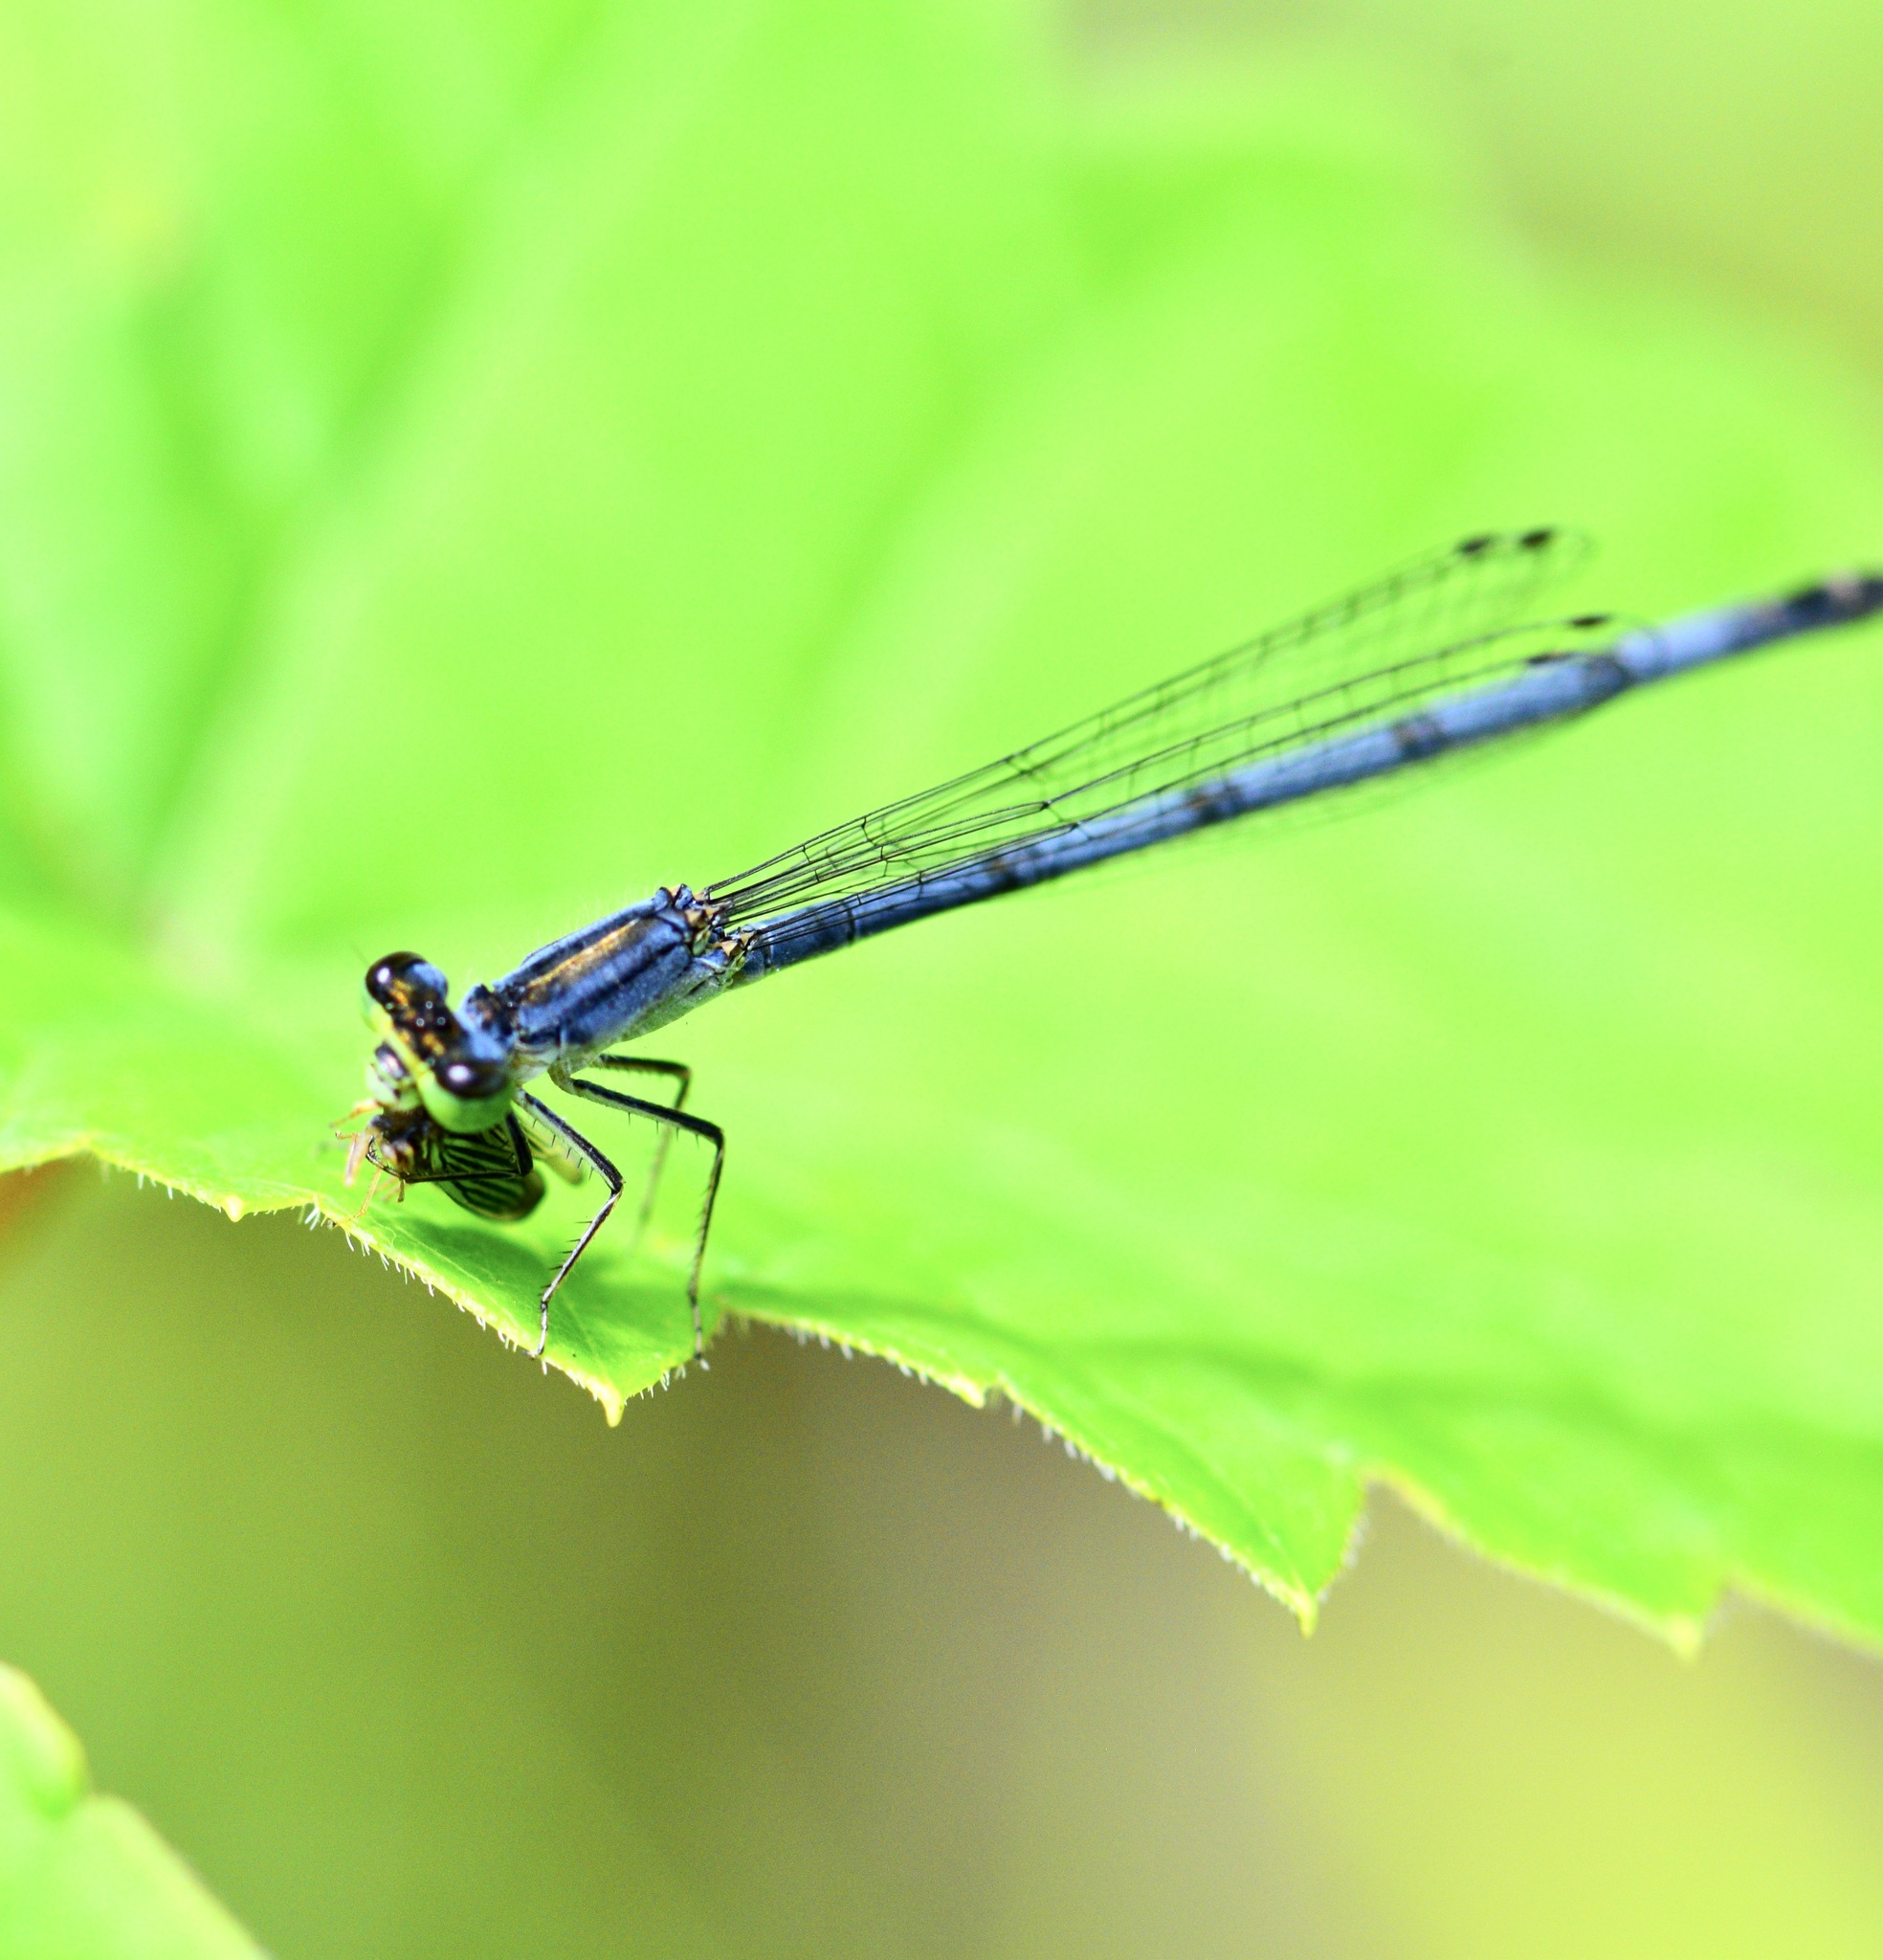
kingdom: Animalia
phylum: Arthropoda
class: Insecta
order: Odonata
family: Coenagrionidae
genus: Ischnura
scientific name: Ischnura verticalis
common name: Eastern forktail
